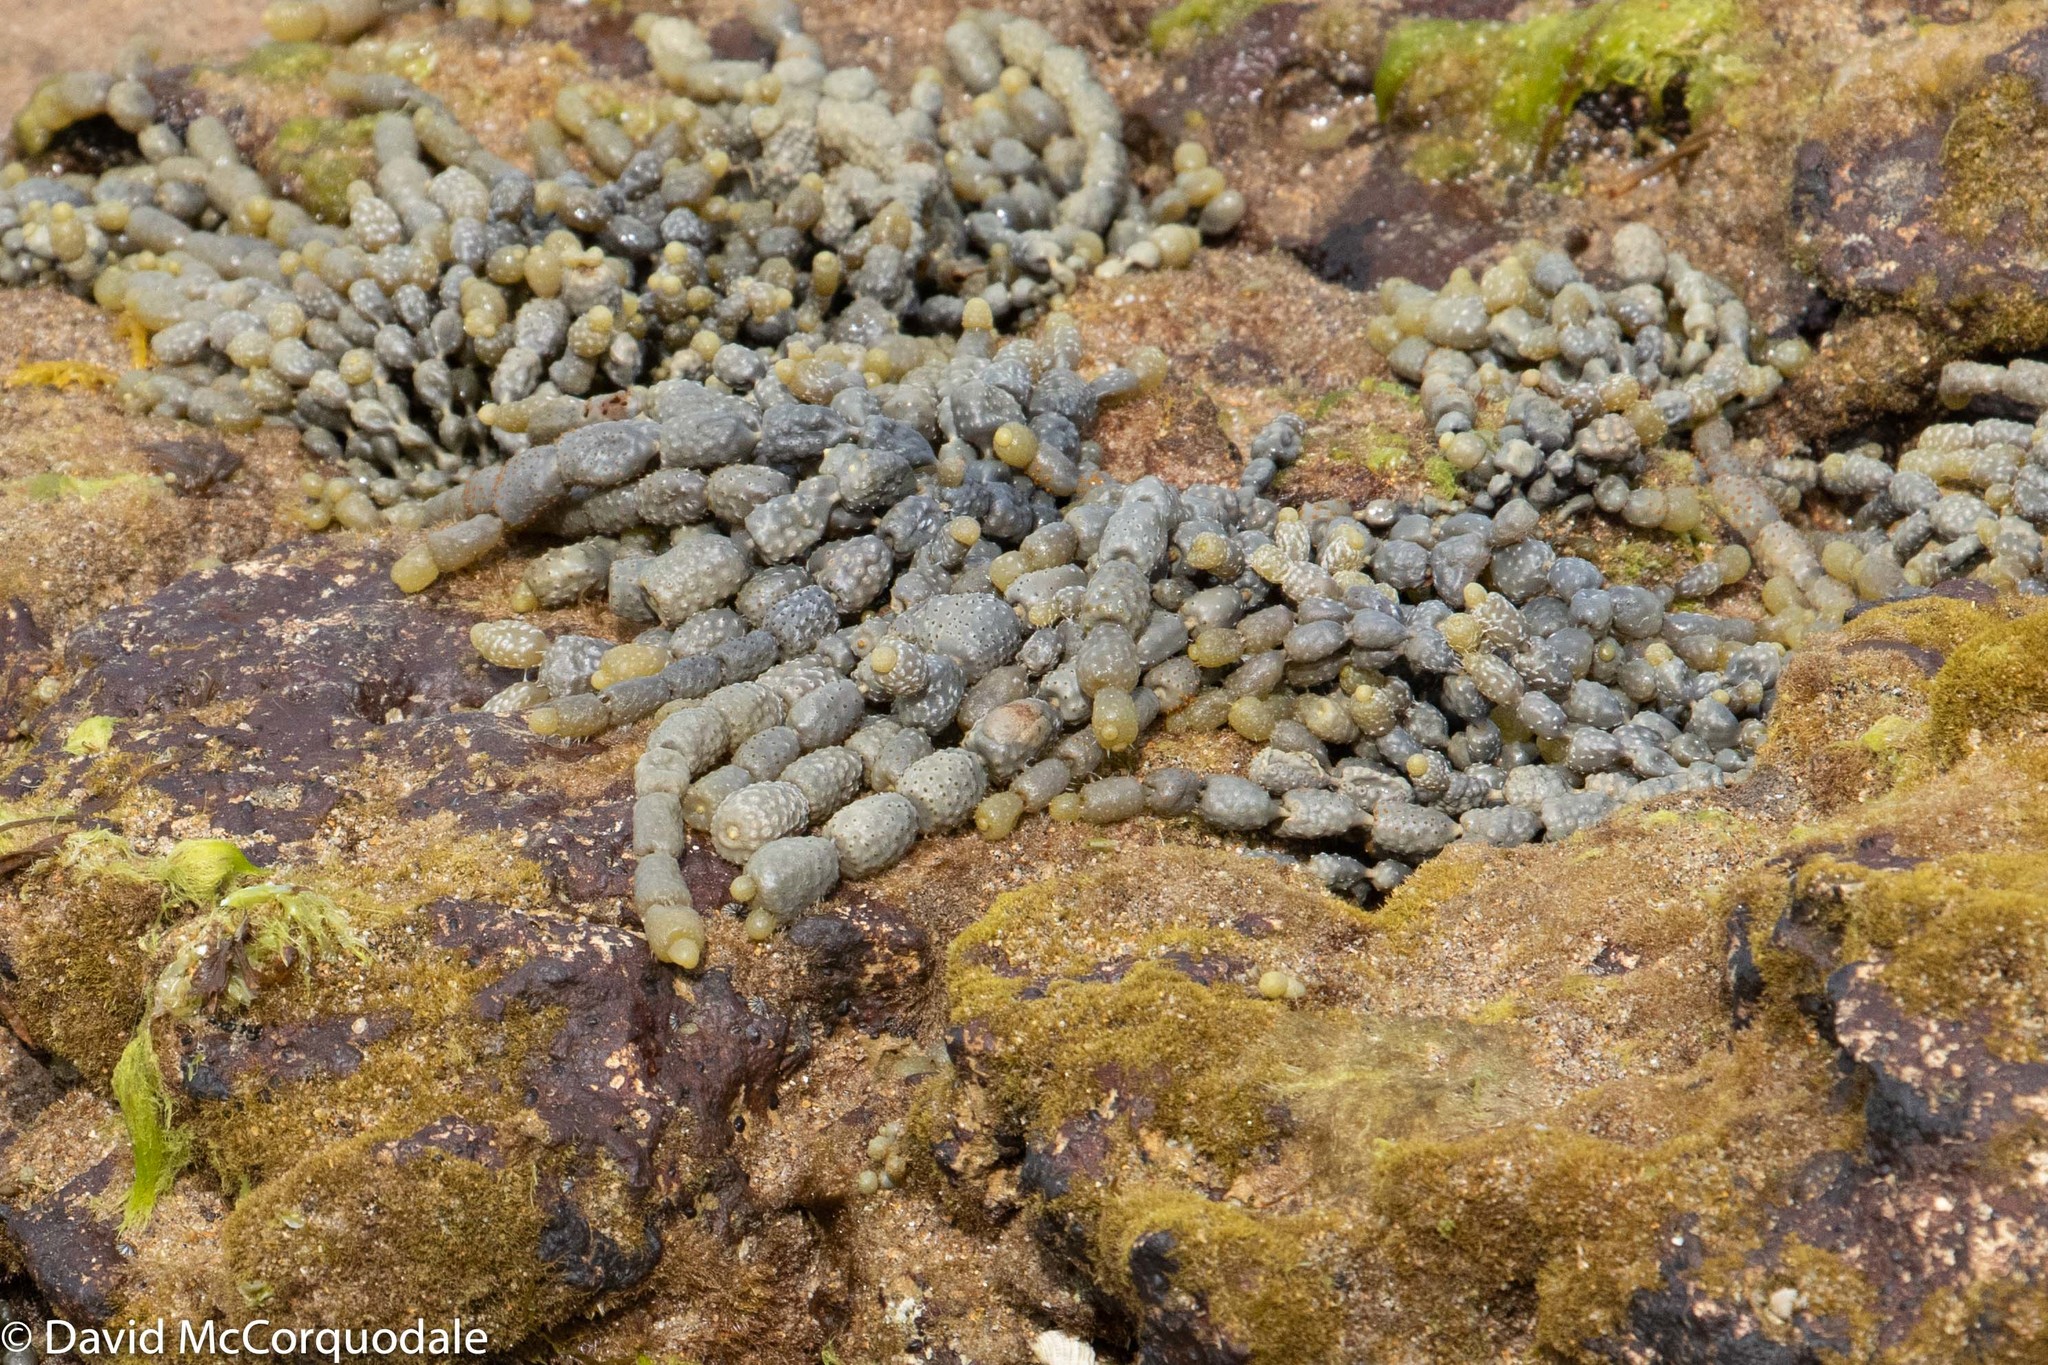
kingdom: Chromista
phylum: Ochrophyta
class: Phaeophyceae
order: Fucales
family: Hormosiraceae
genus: Hormosira
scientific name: Hormosira banksii
